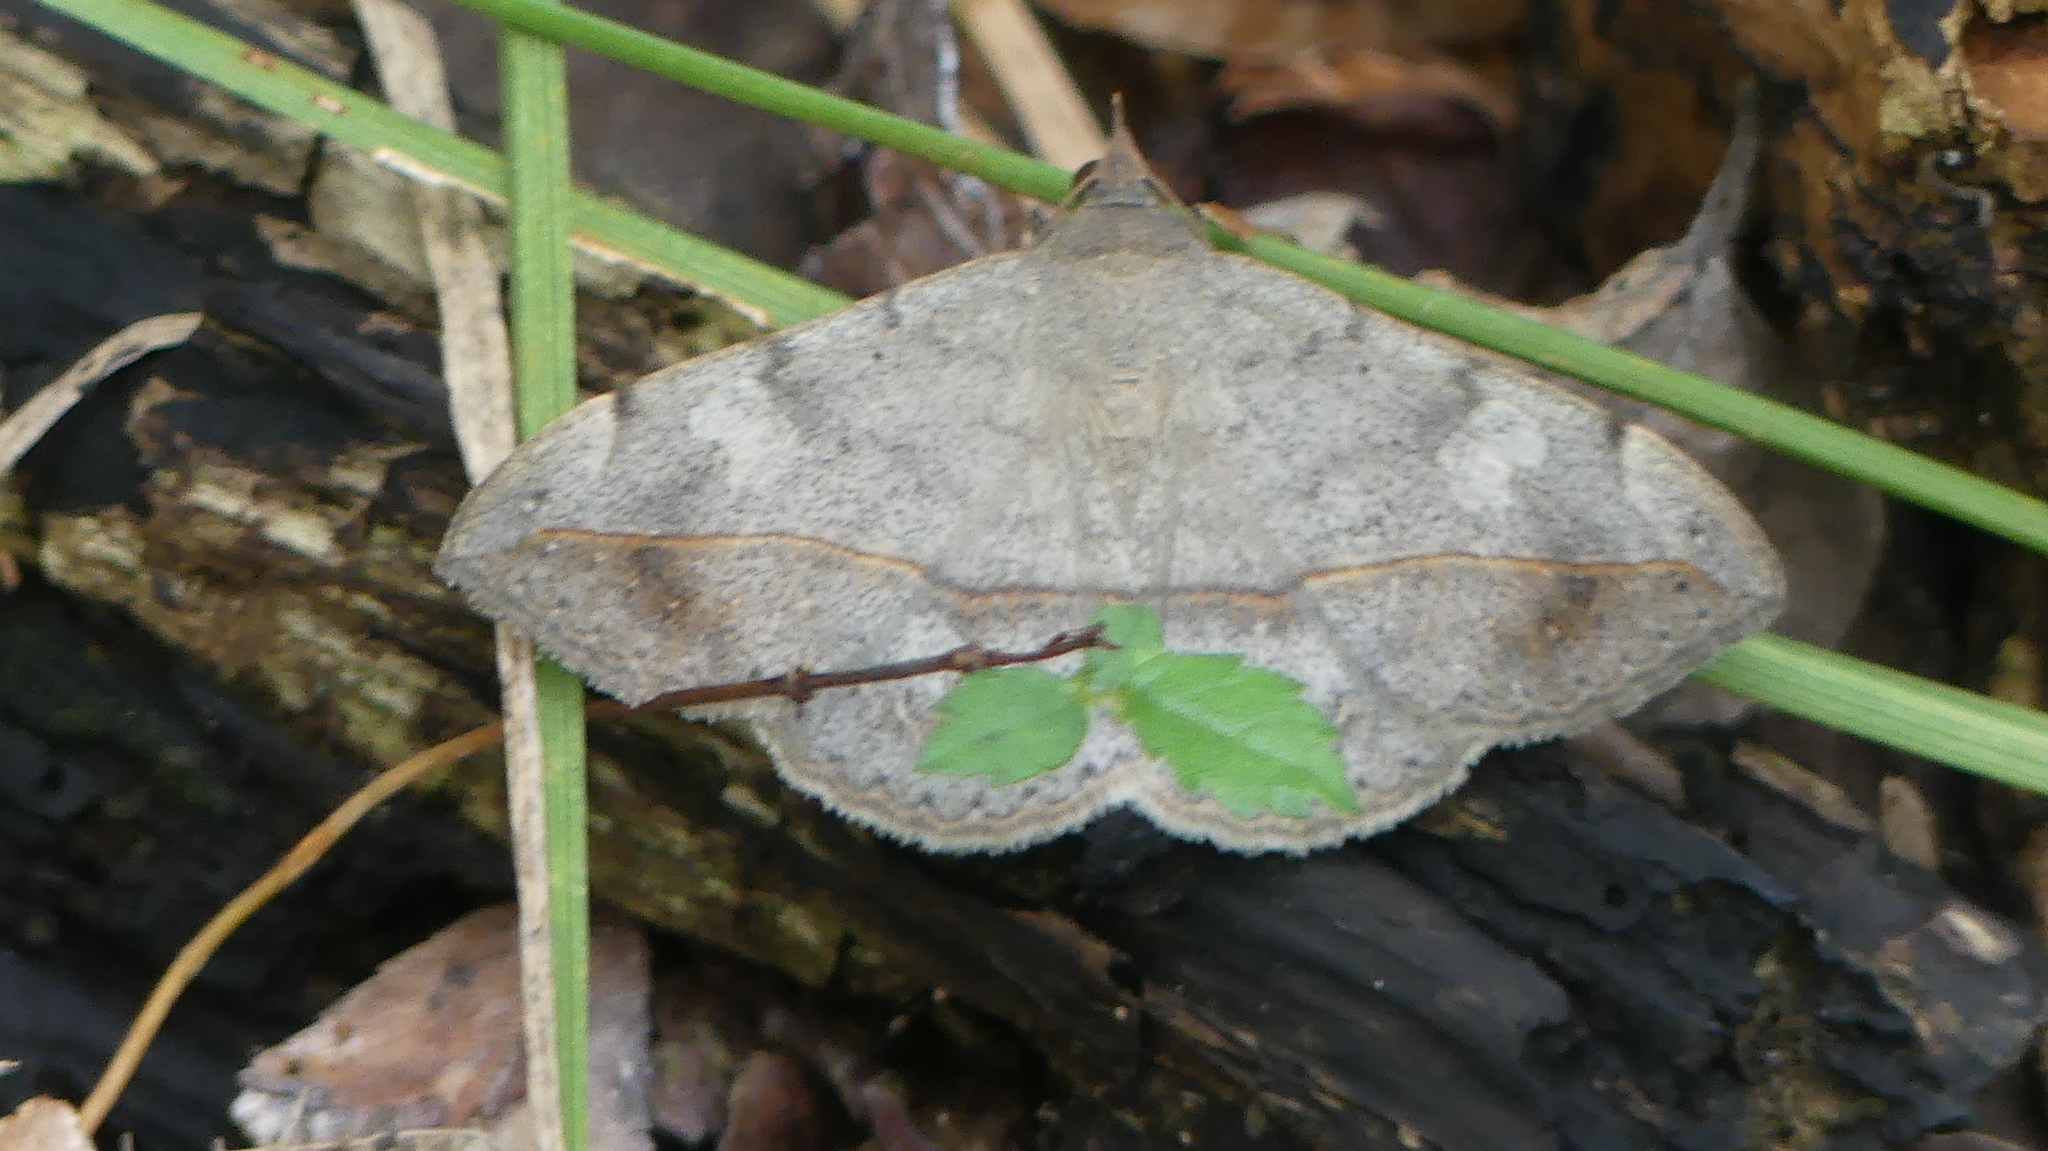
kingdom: Animalia
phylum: Arthropoda
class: Insecta
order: Lepidoptera
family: Erebidae
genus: Anticarsia
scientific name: Anticarsia gemmatalis
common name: Cutworm moth
